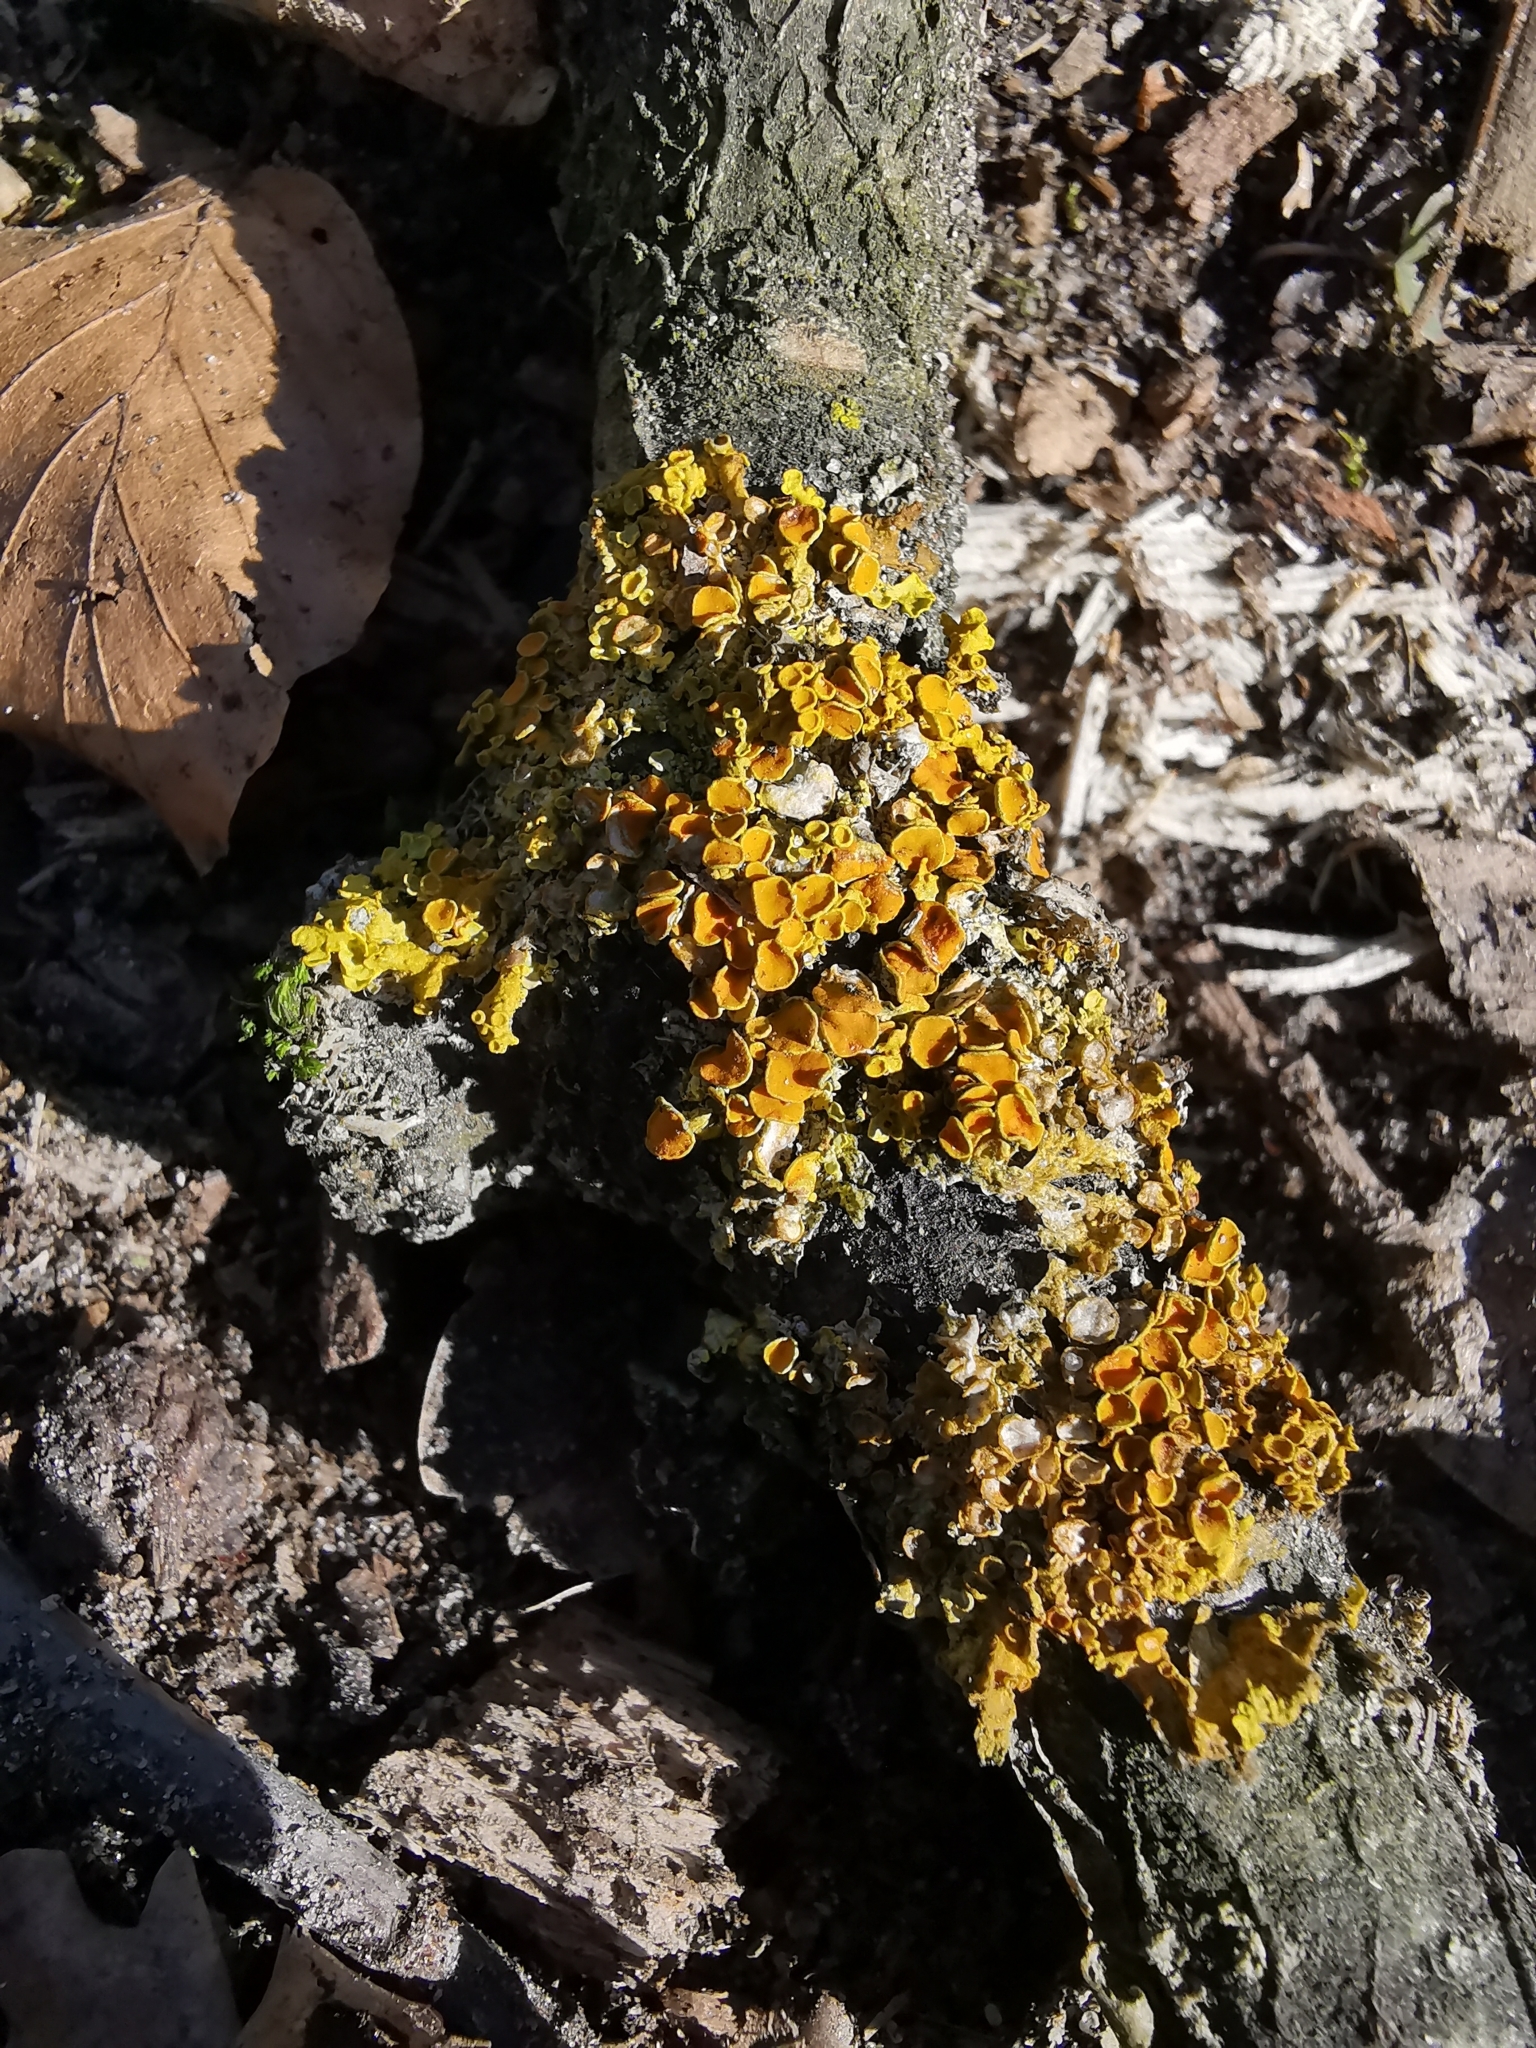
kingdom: Fungi
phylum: Ascomycota
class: Lecanoromycetes
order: Teloschistales
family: Teloschistaceae
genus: Xanthoria
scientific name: Xanthoria parietina
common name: Common orange lichen
